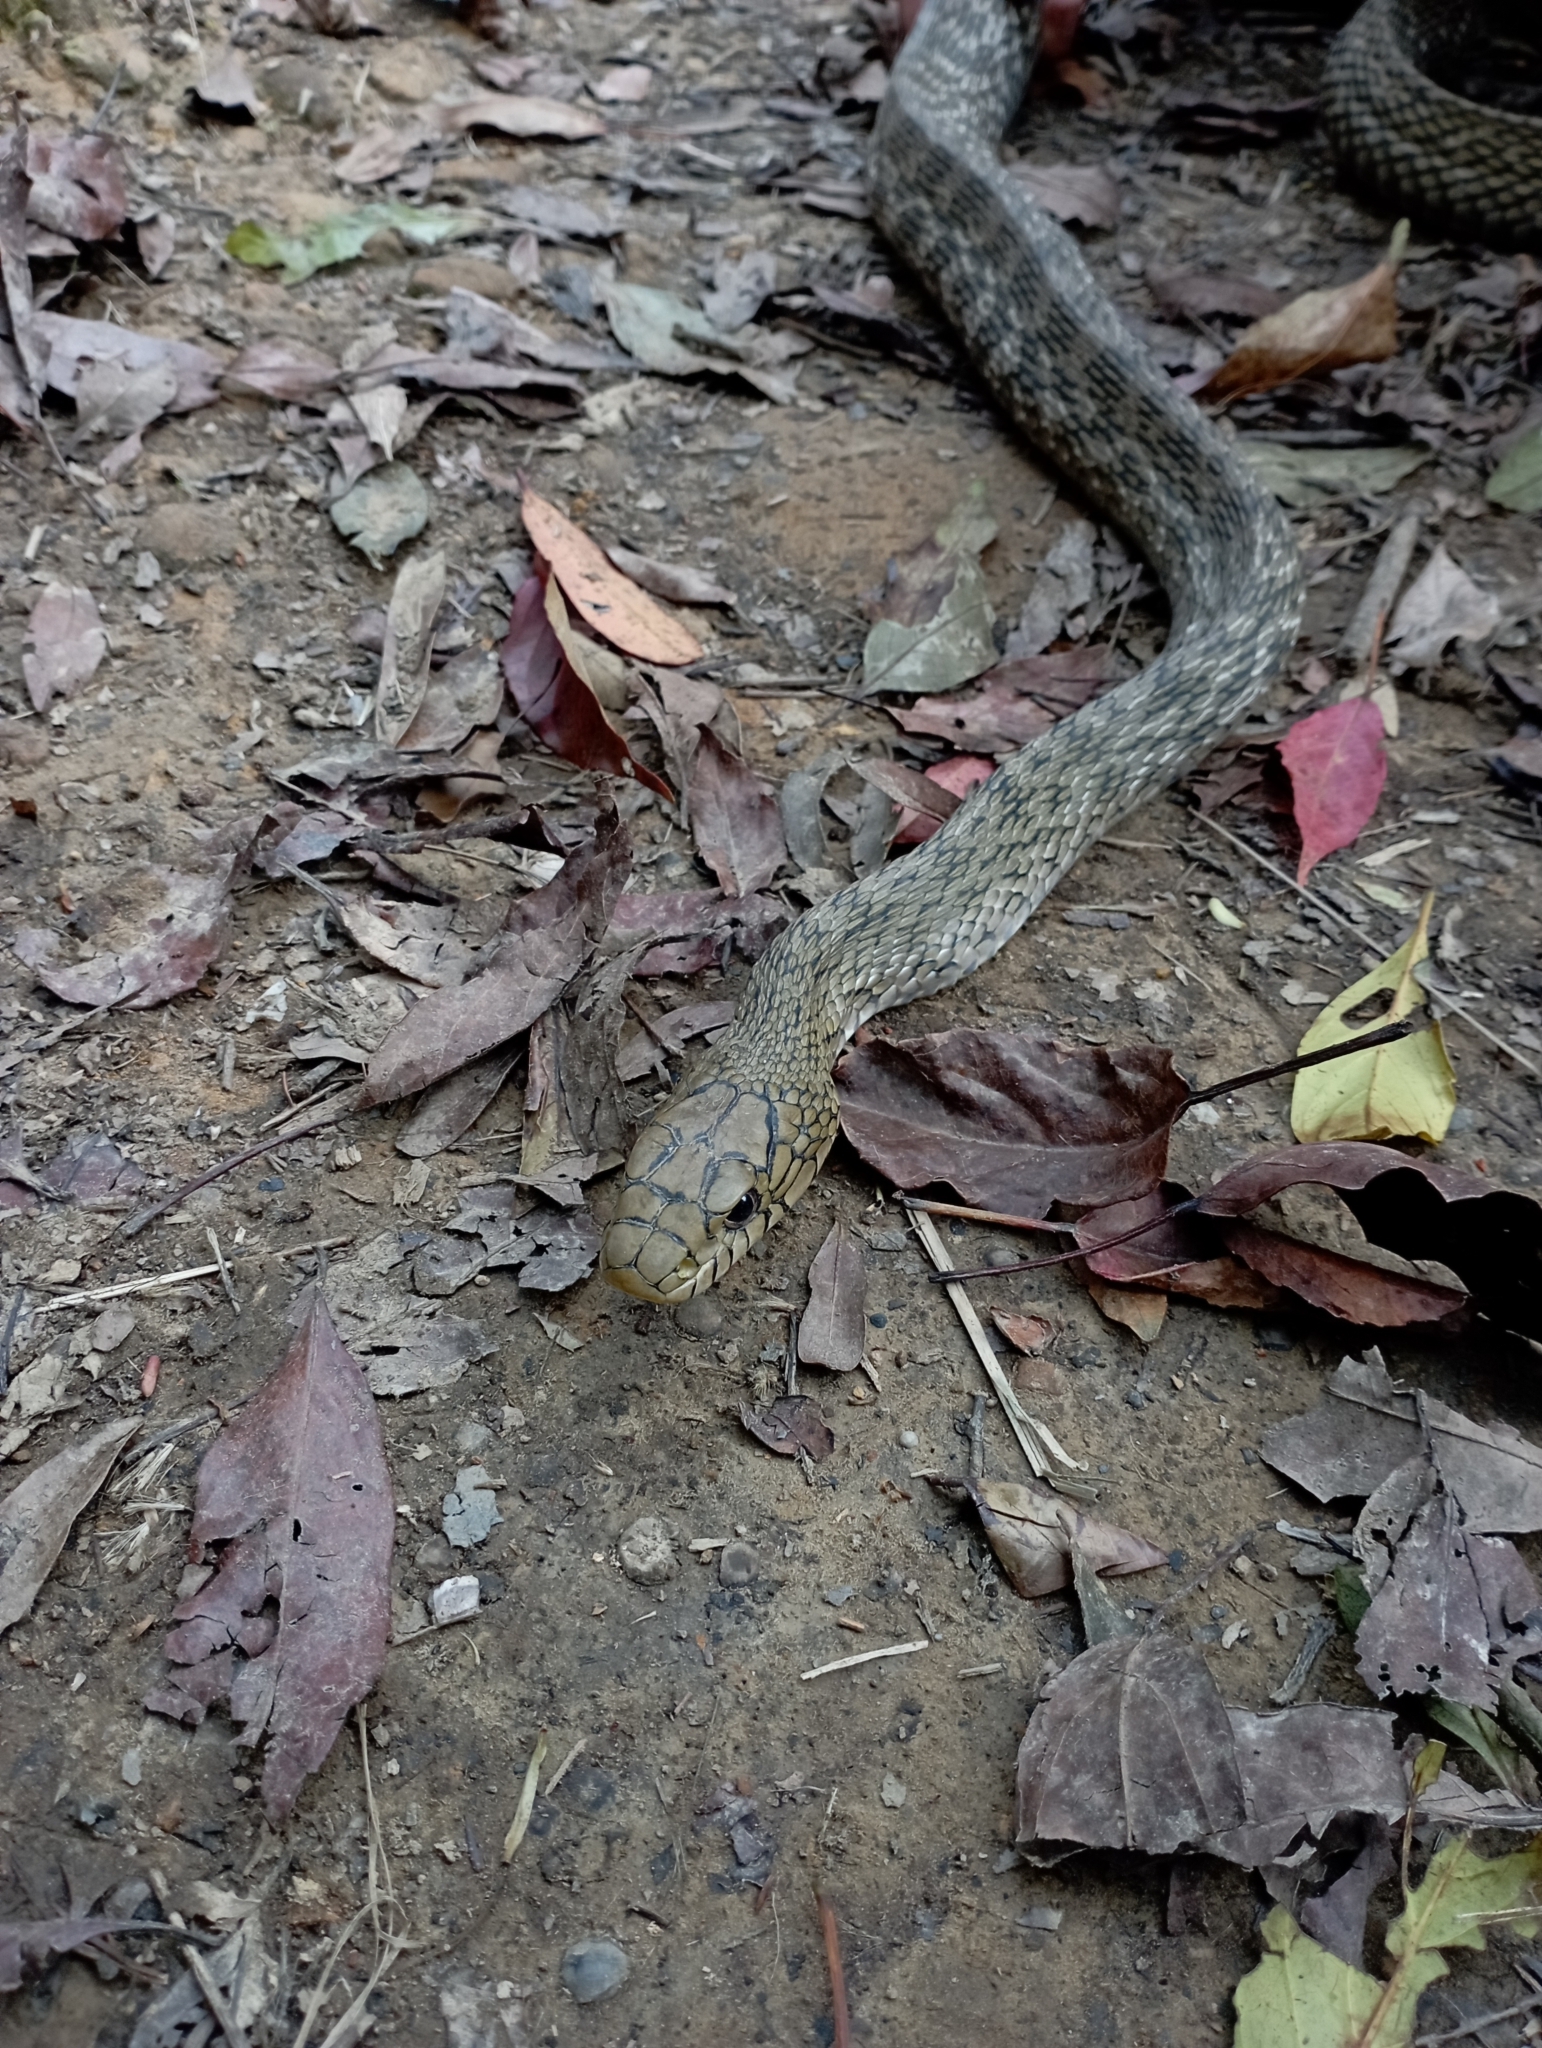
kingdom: Animalia
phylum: Chordata
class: Squamata
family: Colubridae
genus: Elaphe
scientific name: Elaphe carinata
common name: Taiwan stink snake
